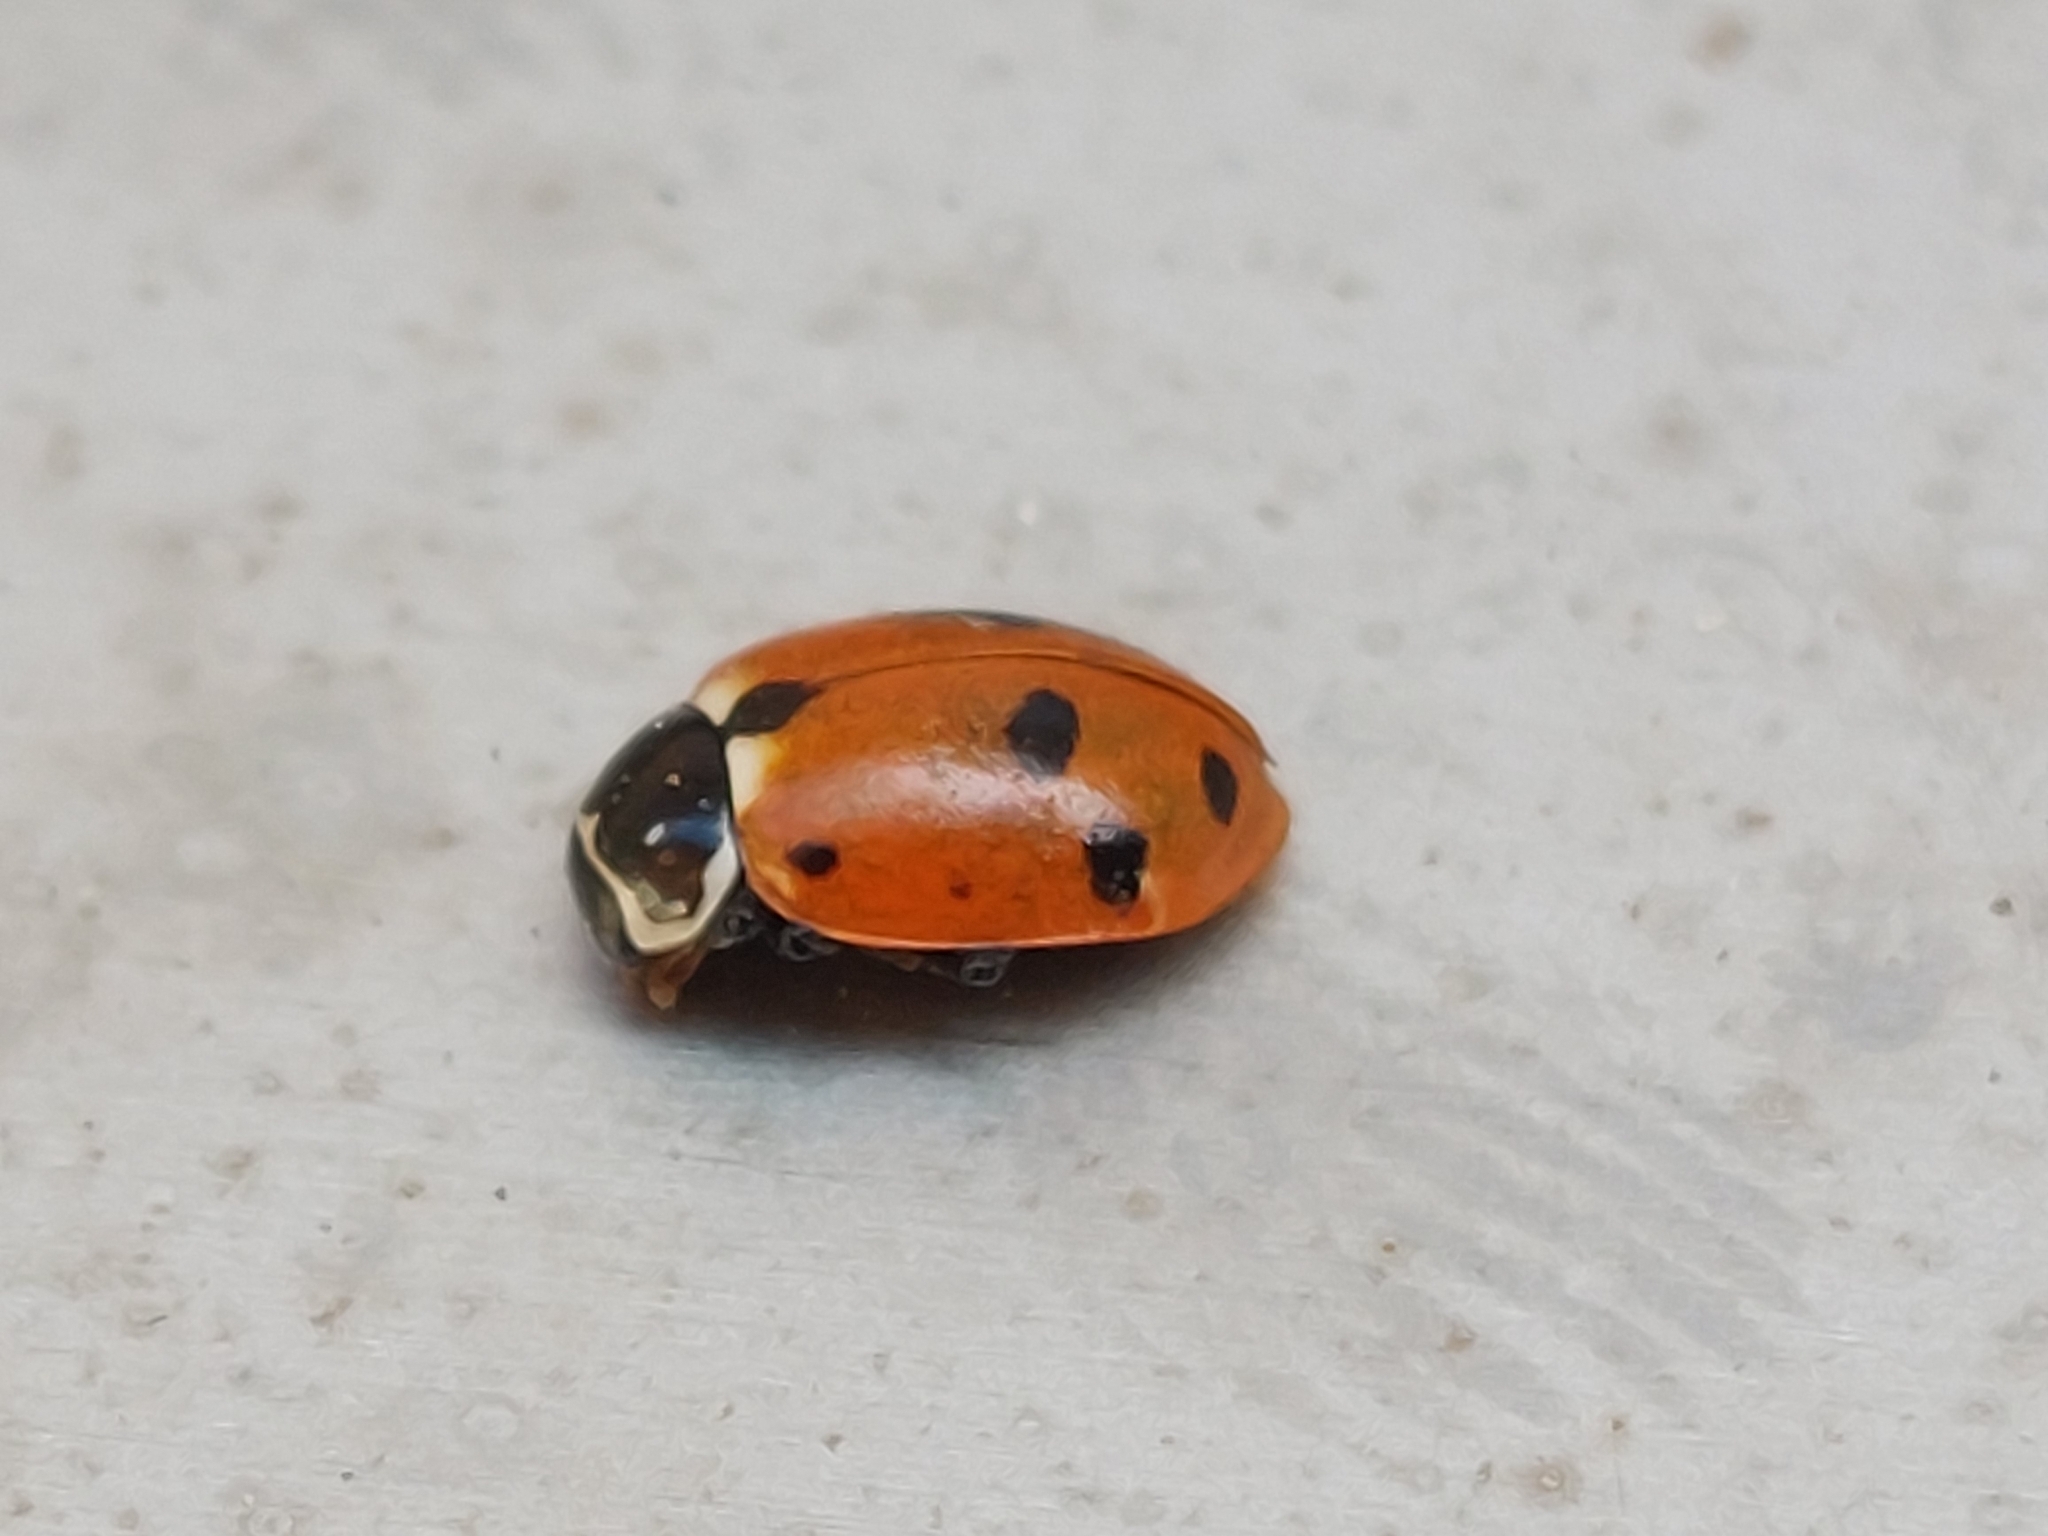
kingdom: Animalia
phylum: Arthropoda
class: Insecta
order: Coleoptera
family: Coccinellidae
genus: Hippodamia
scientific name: Hippodamia variegata
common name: Ladybird beetle
